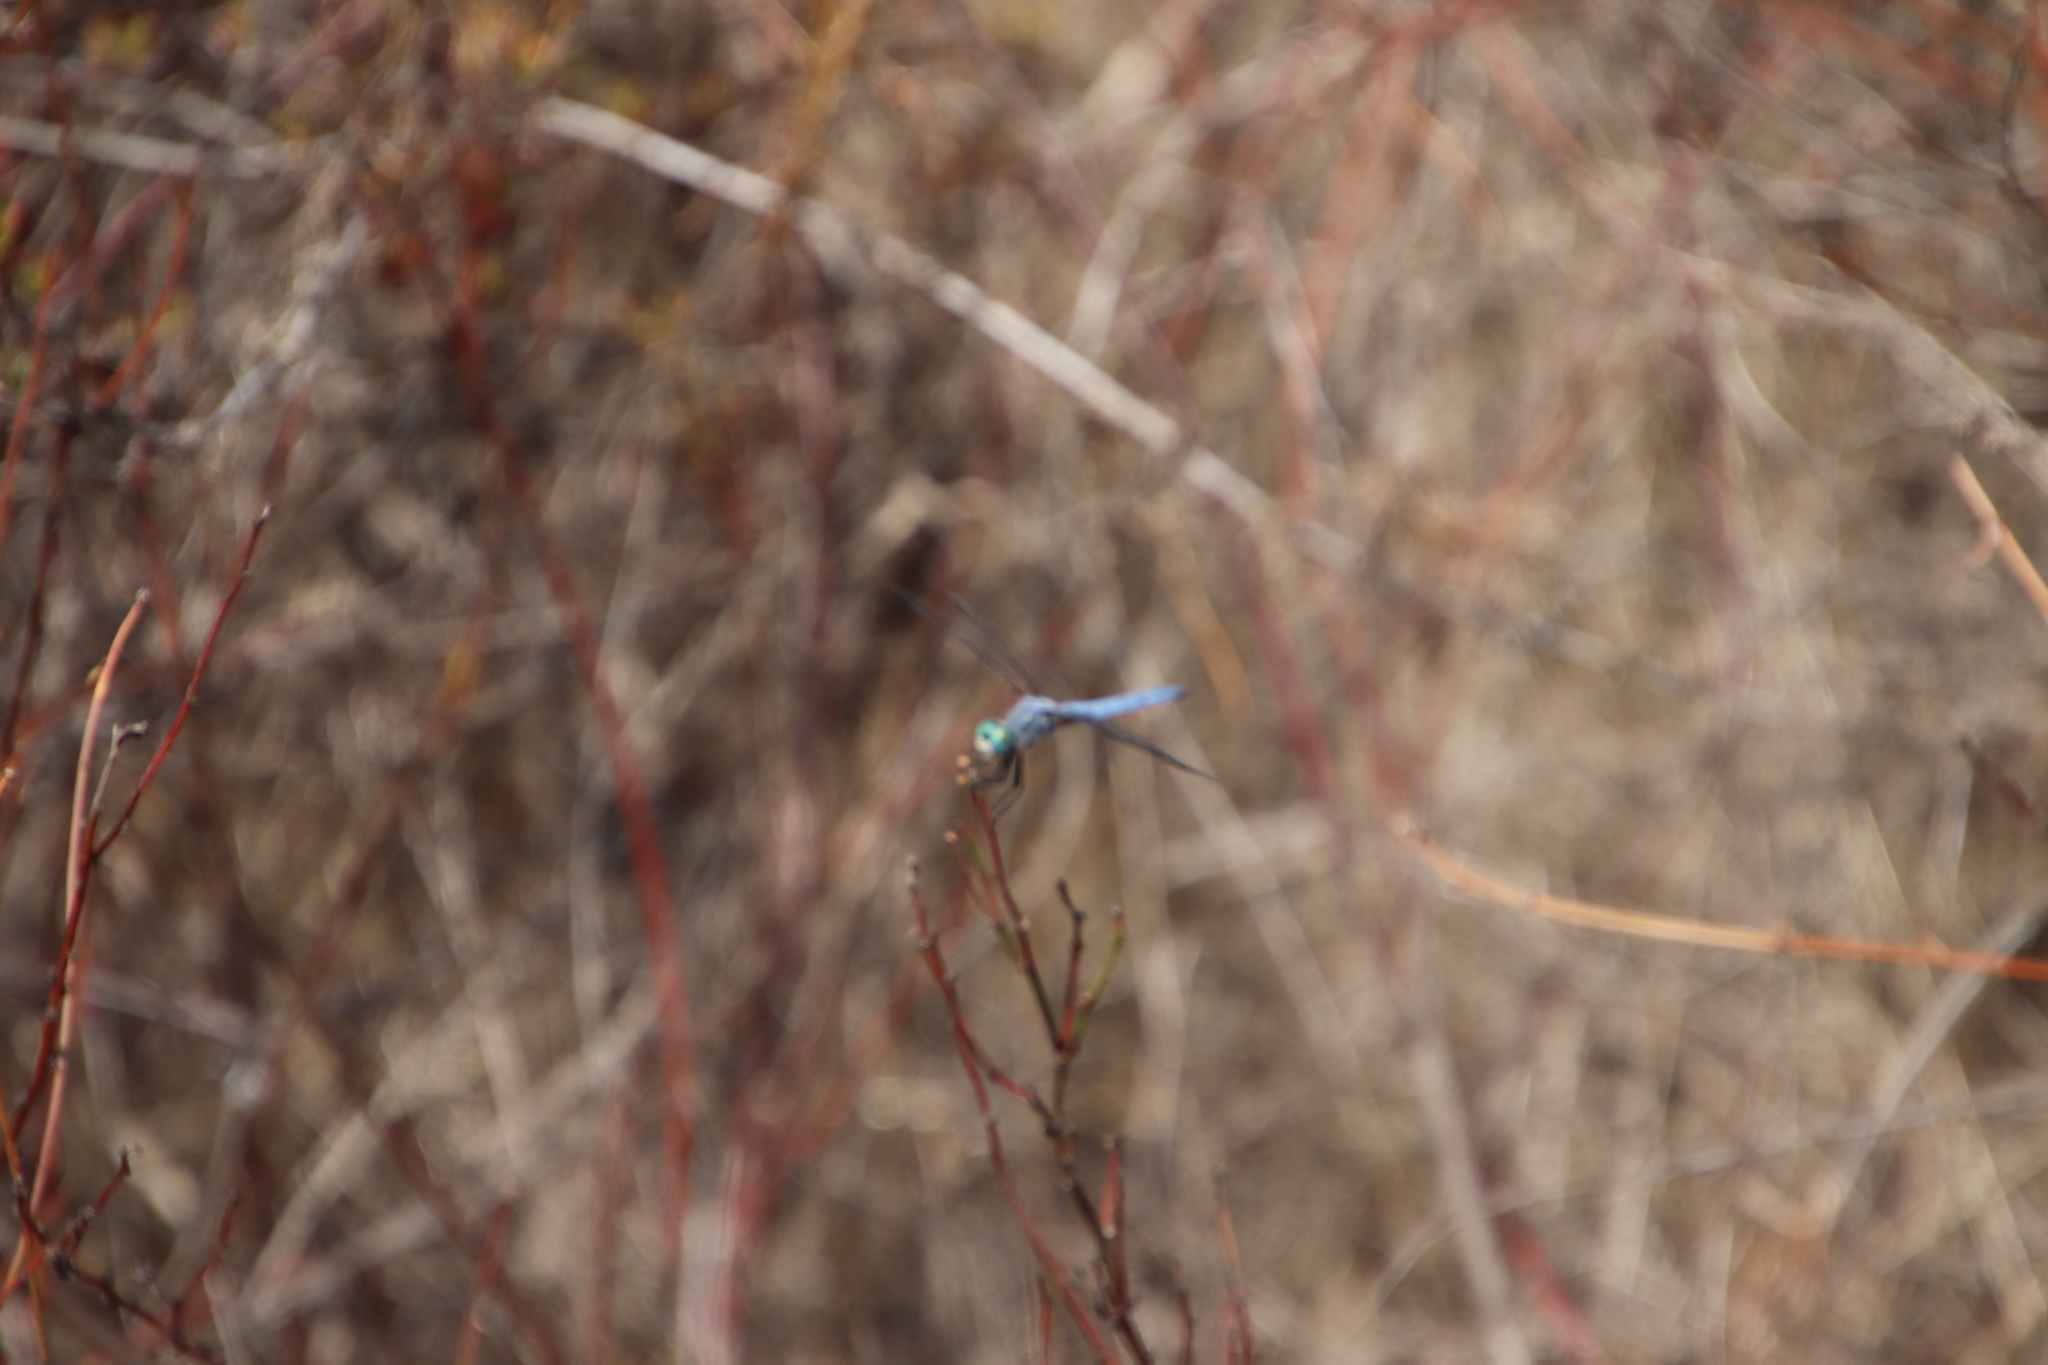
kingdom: Animalia
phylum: Arthropoda
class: Insecta
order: Odonata
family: Libellulidae
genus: Pachydiplax
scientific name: Pachydiplax longipennis
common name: Blue dasher
